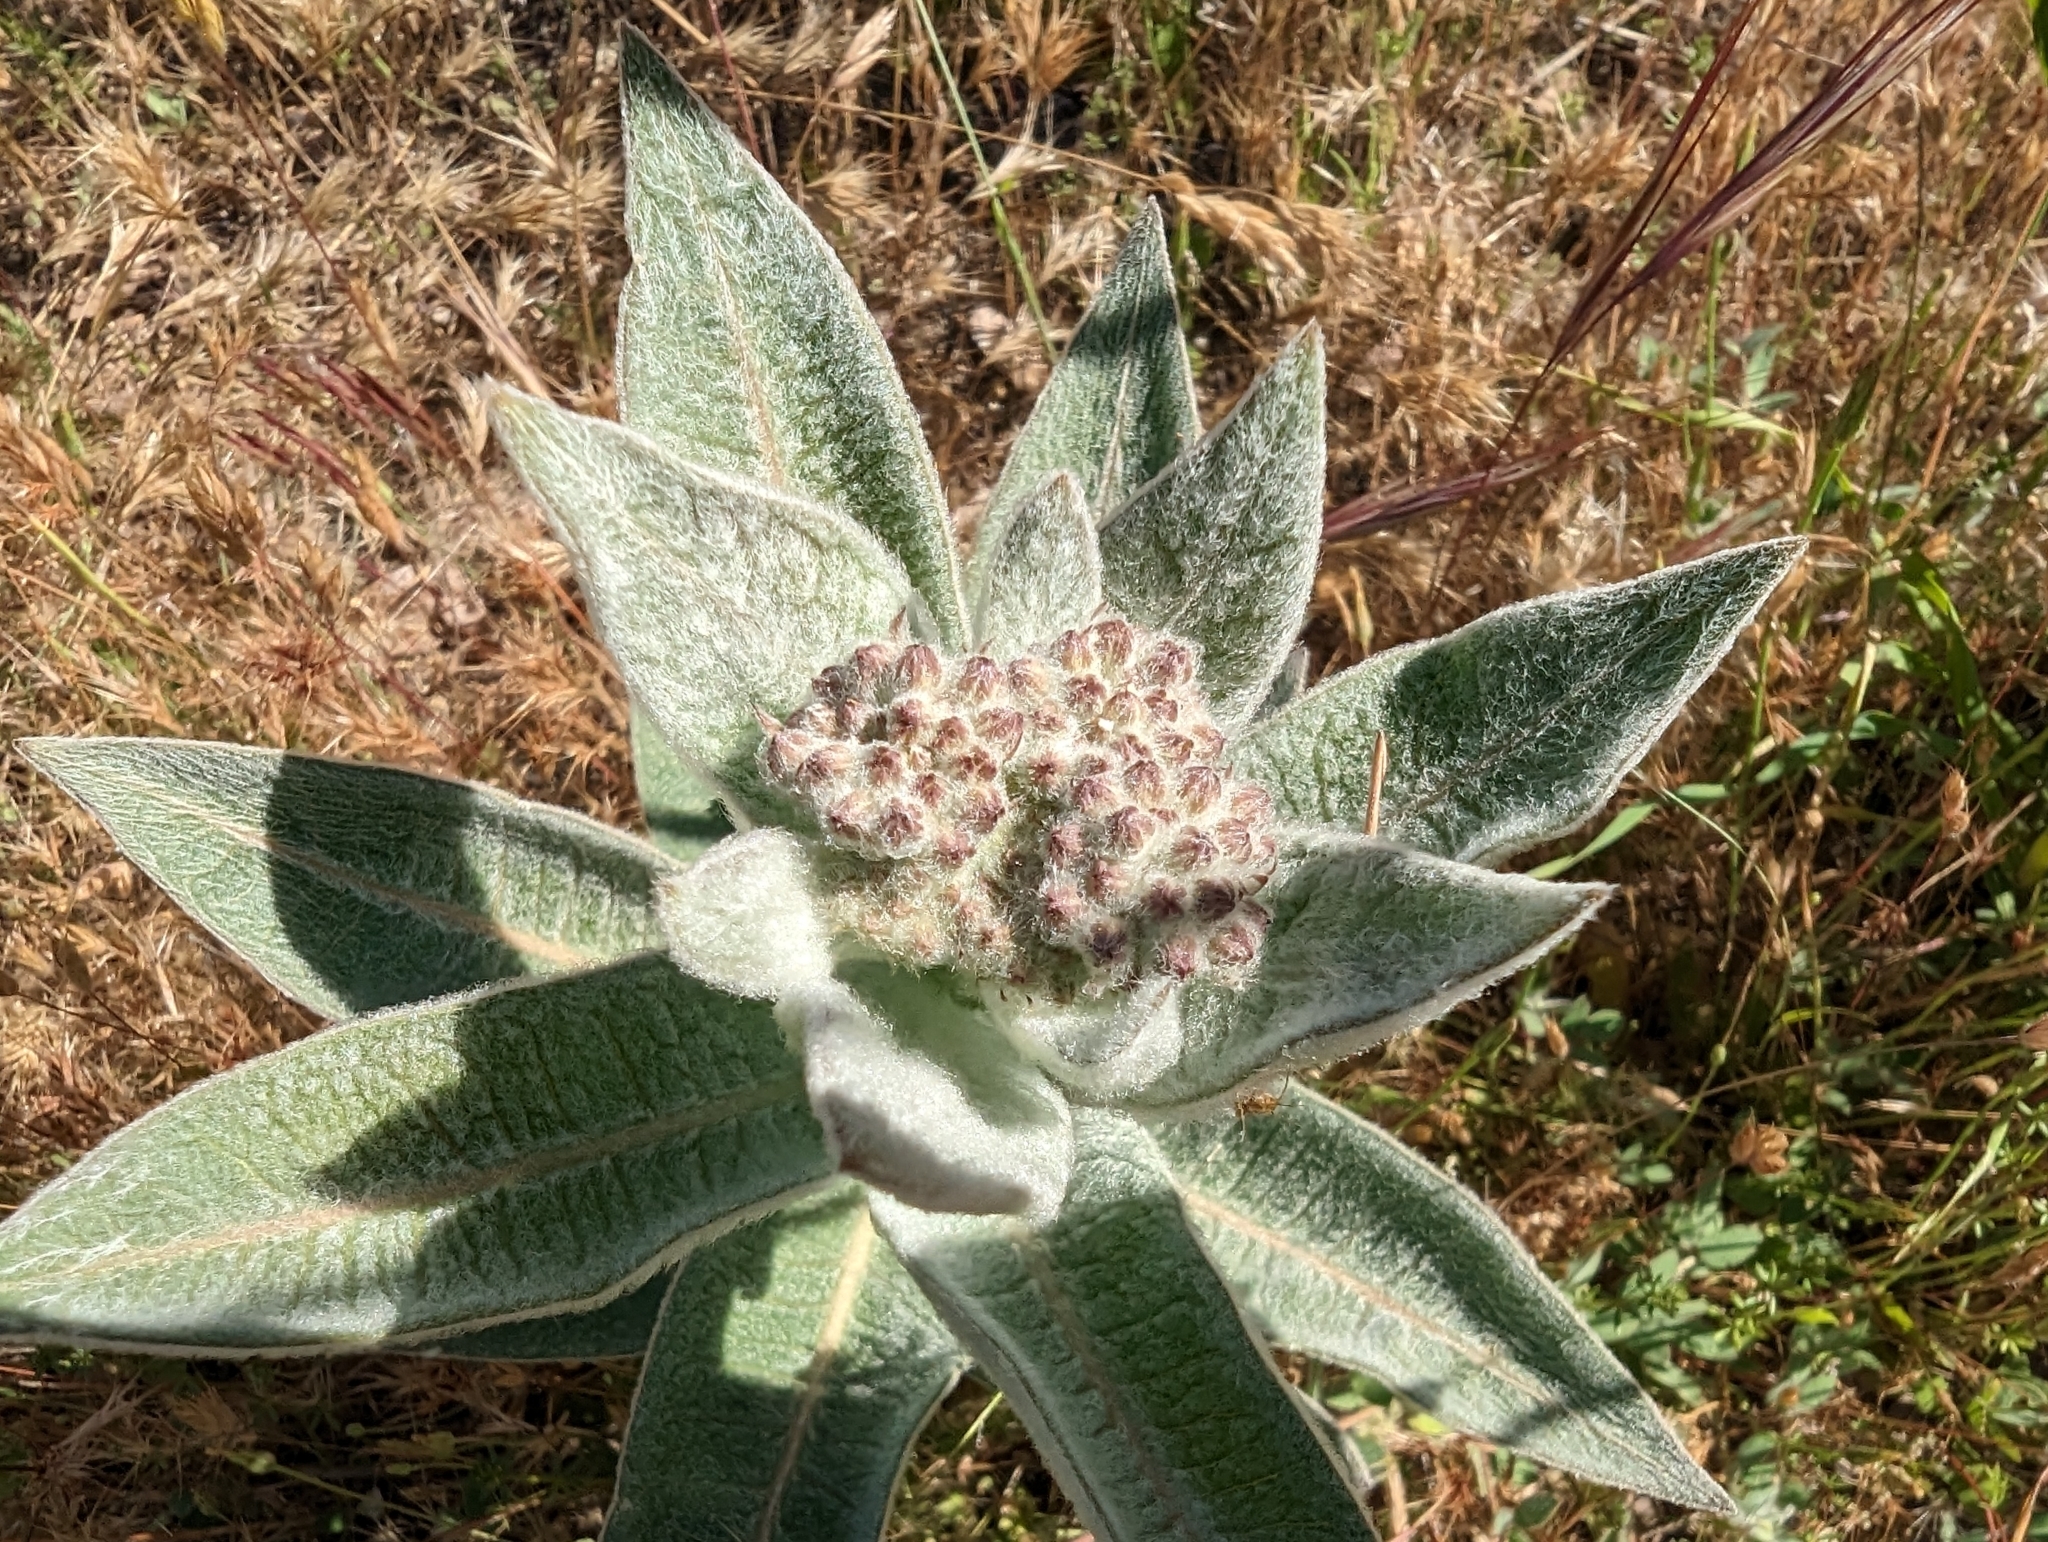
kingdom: Plantae
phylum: Tracheophyta
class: Magnoliopsida
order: Gentianales
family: Apocynaceae
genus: Asclepias
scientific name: Asclepias eriocarpa
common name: Indian milkweed
